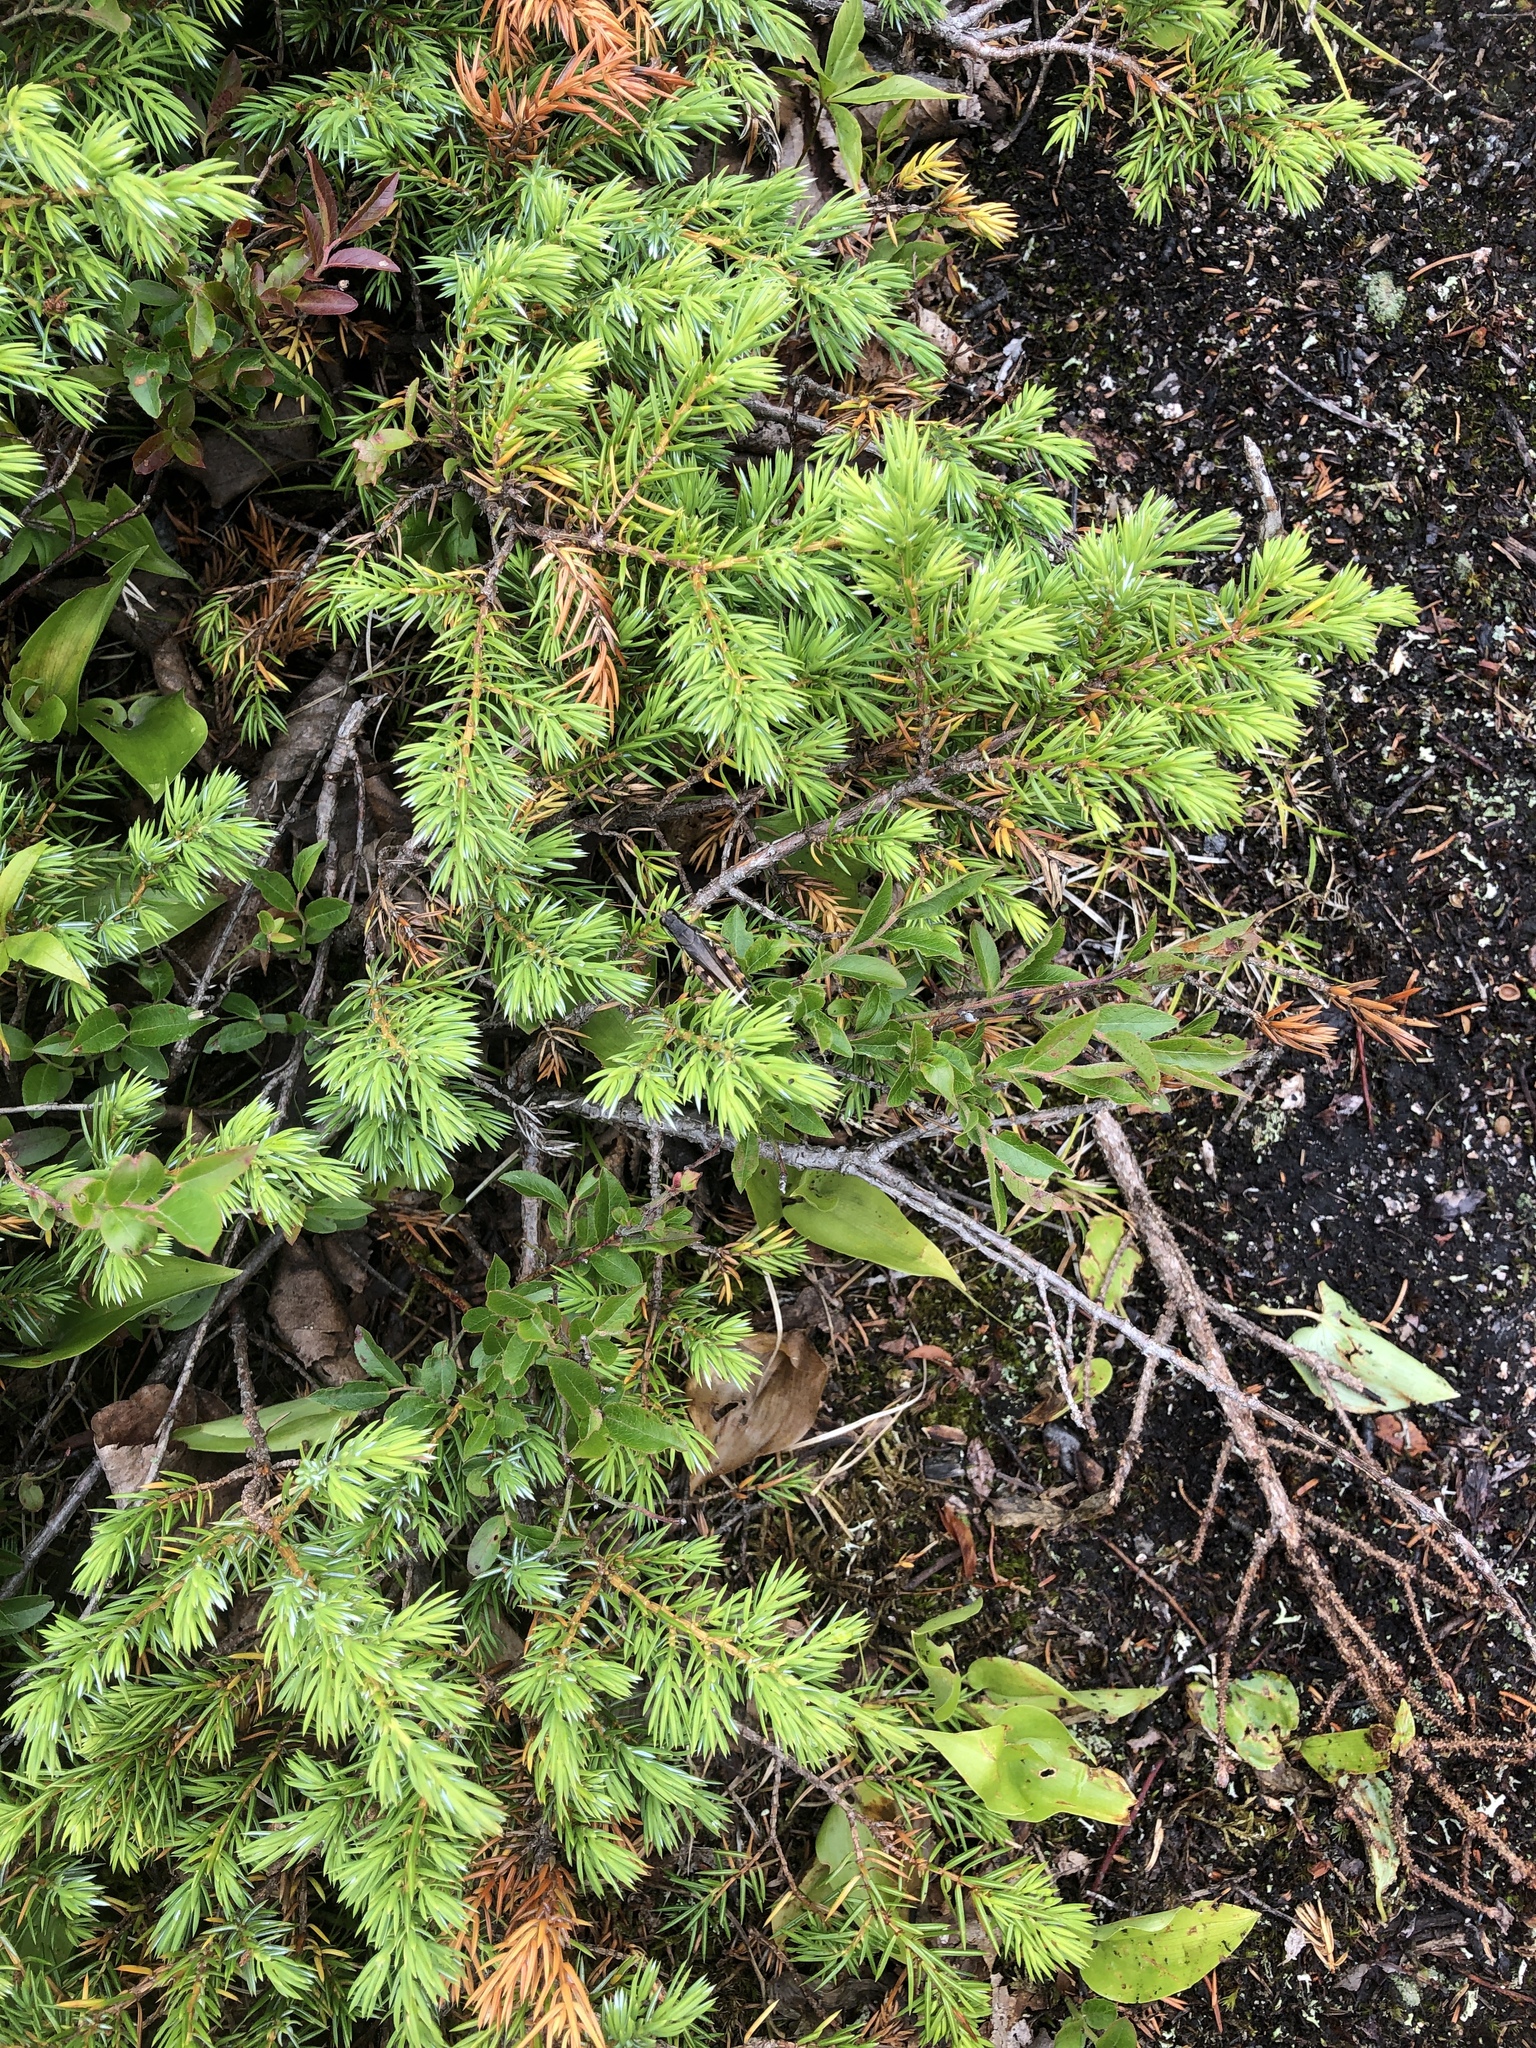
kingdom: Plantae
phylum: Tracheophyta
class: Pinopsida
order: Pinales
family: Cupressaceae
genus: Juniperus
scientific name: Juniperus communis
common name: Common juniper
